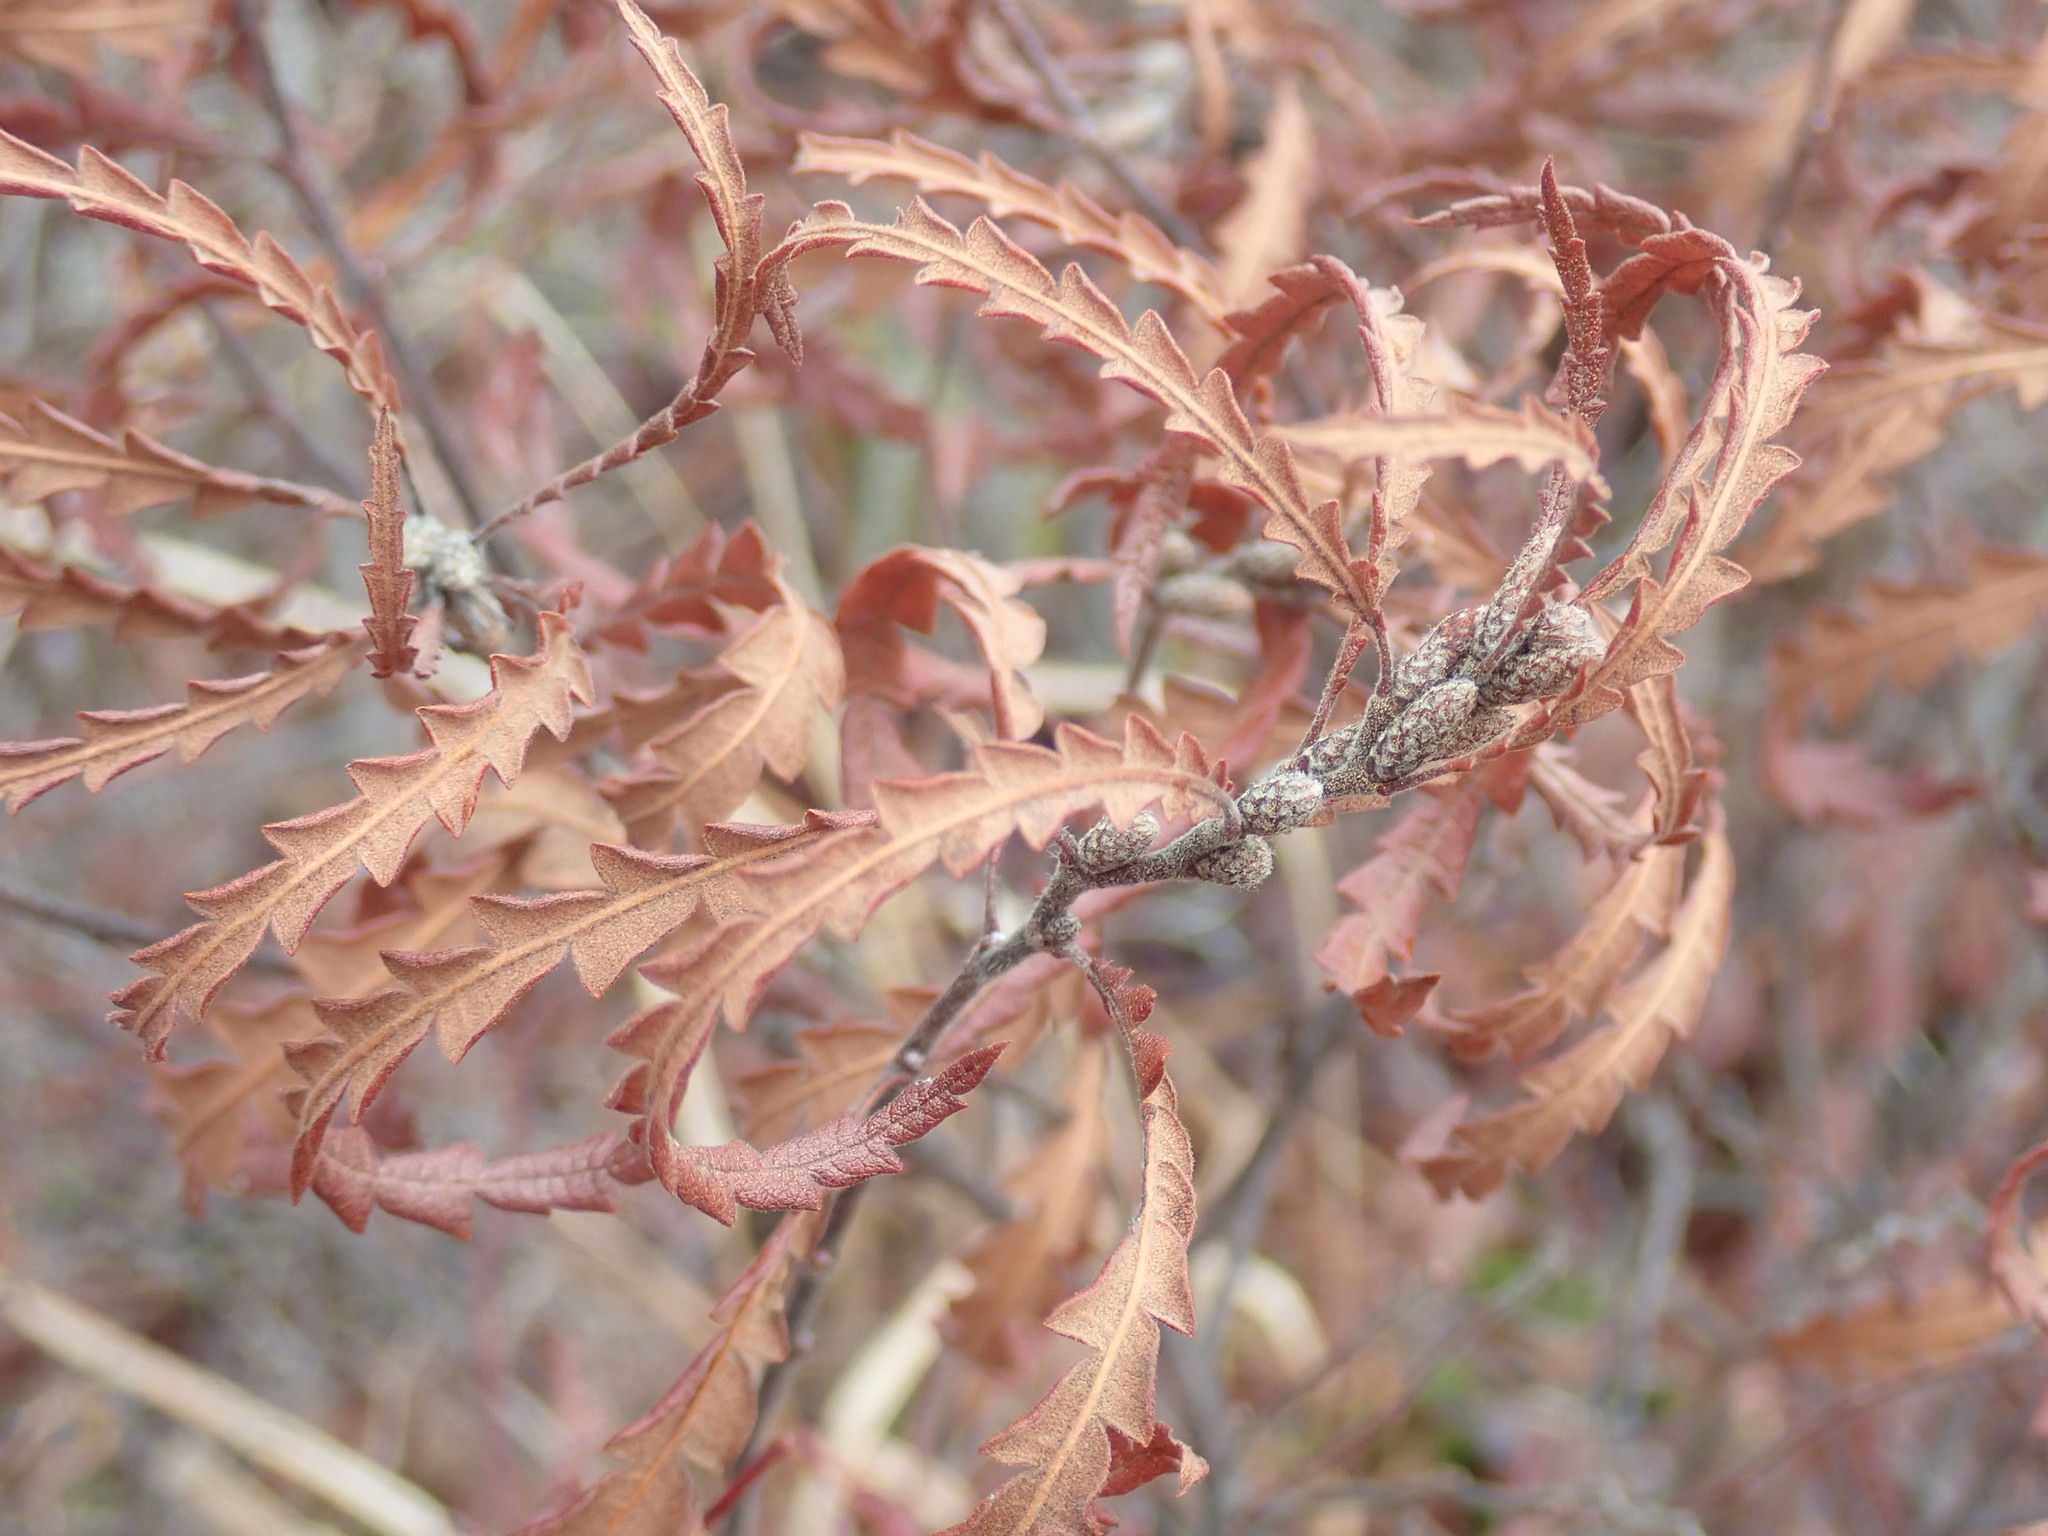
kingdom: Plantae
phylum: Tracheophyta
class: Magnoliopsida
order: Fagales
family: Myricaceae
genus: Comptonia
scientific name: Comptonia peregrina
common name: Sweet-fern
